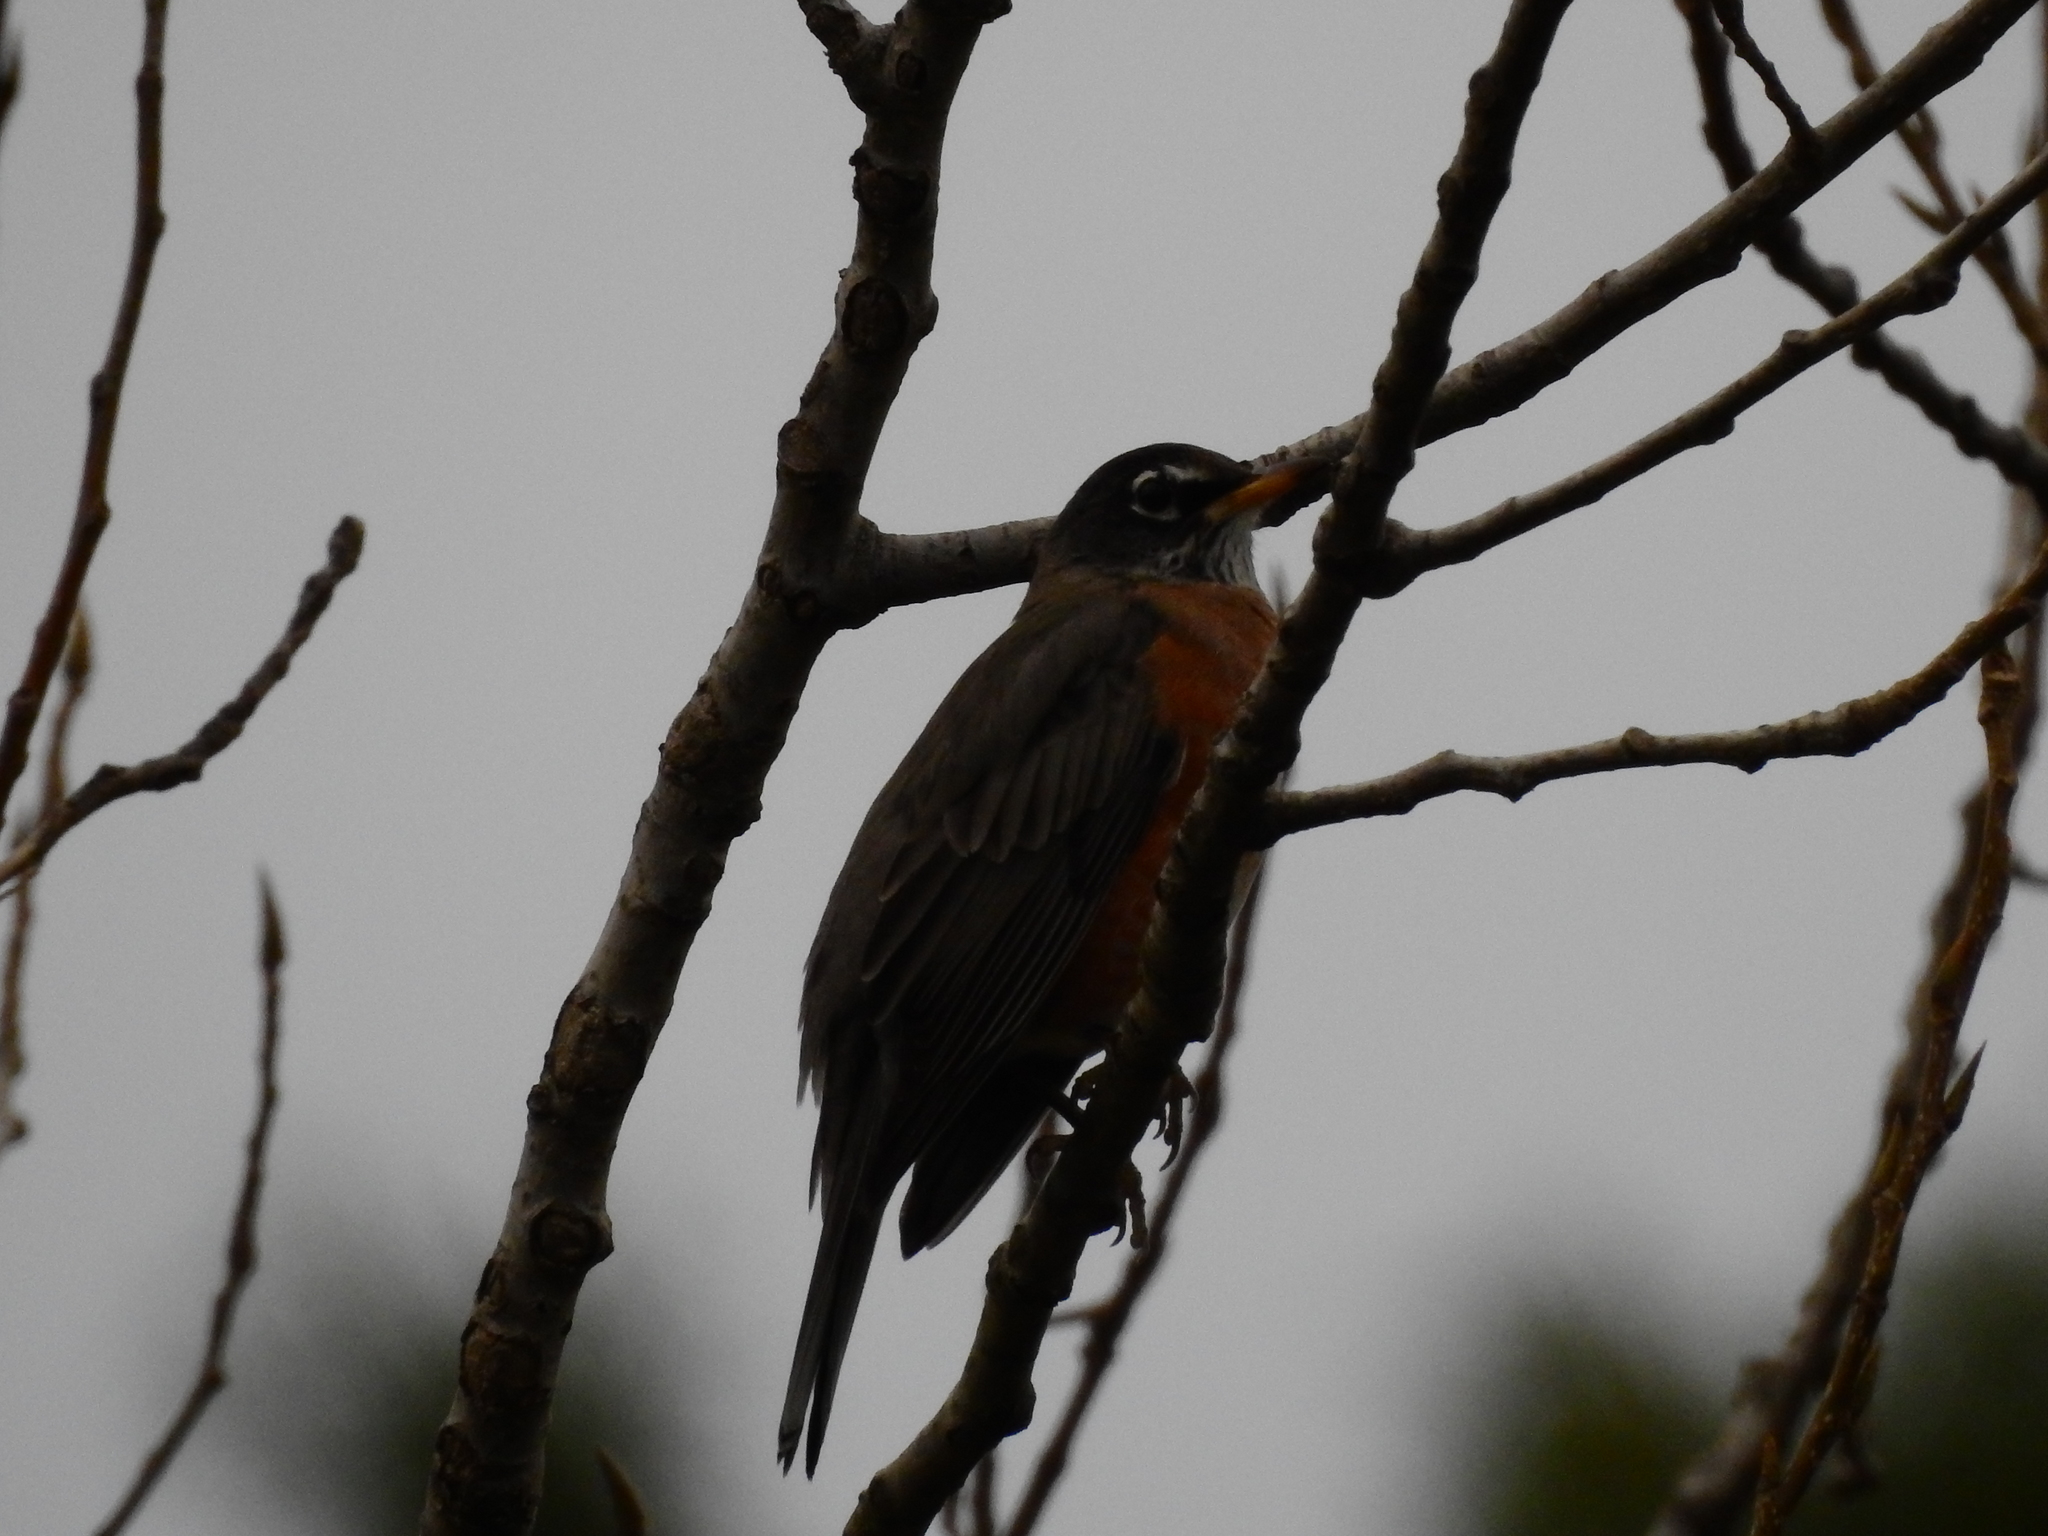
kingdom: Animalia
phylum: Chordata
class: Aves
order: Passeriformes
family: Turdidae
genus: Turdus
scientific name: Turdus migratorius
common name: American robin
